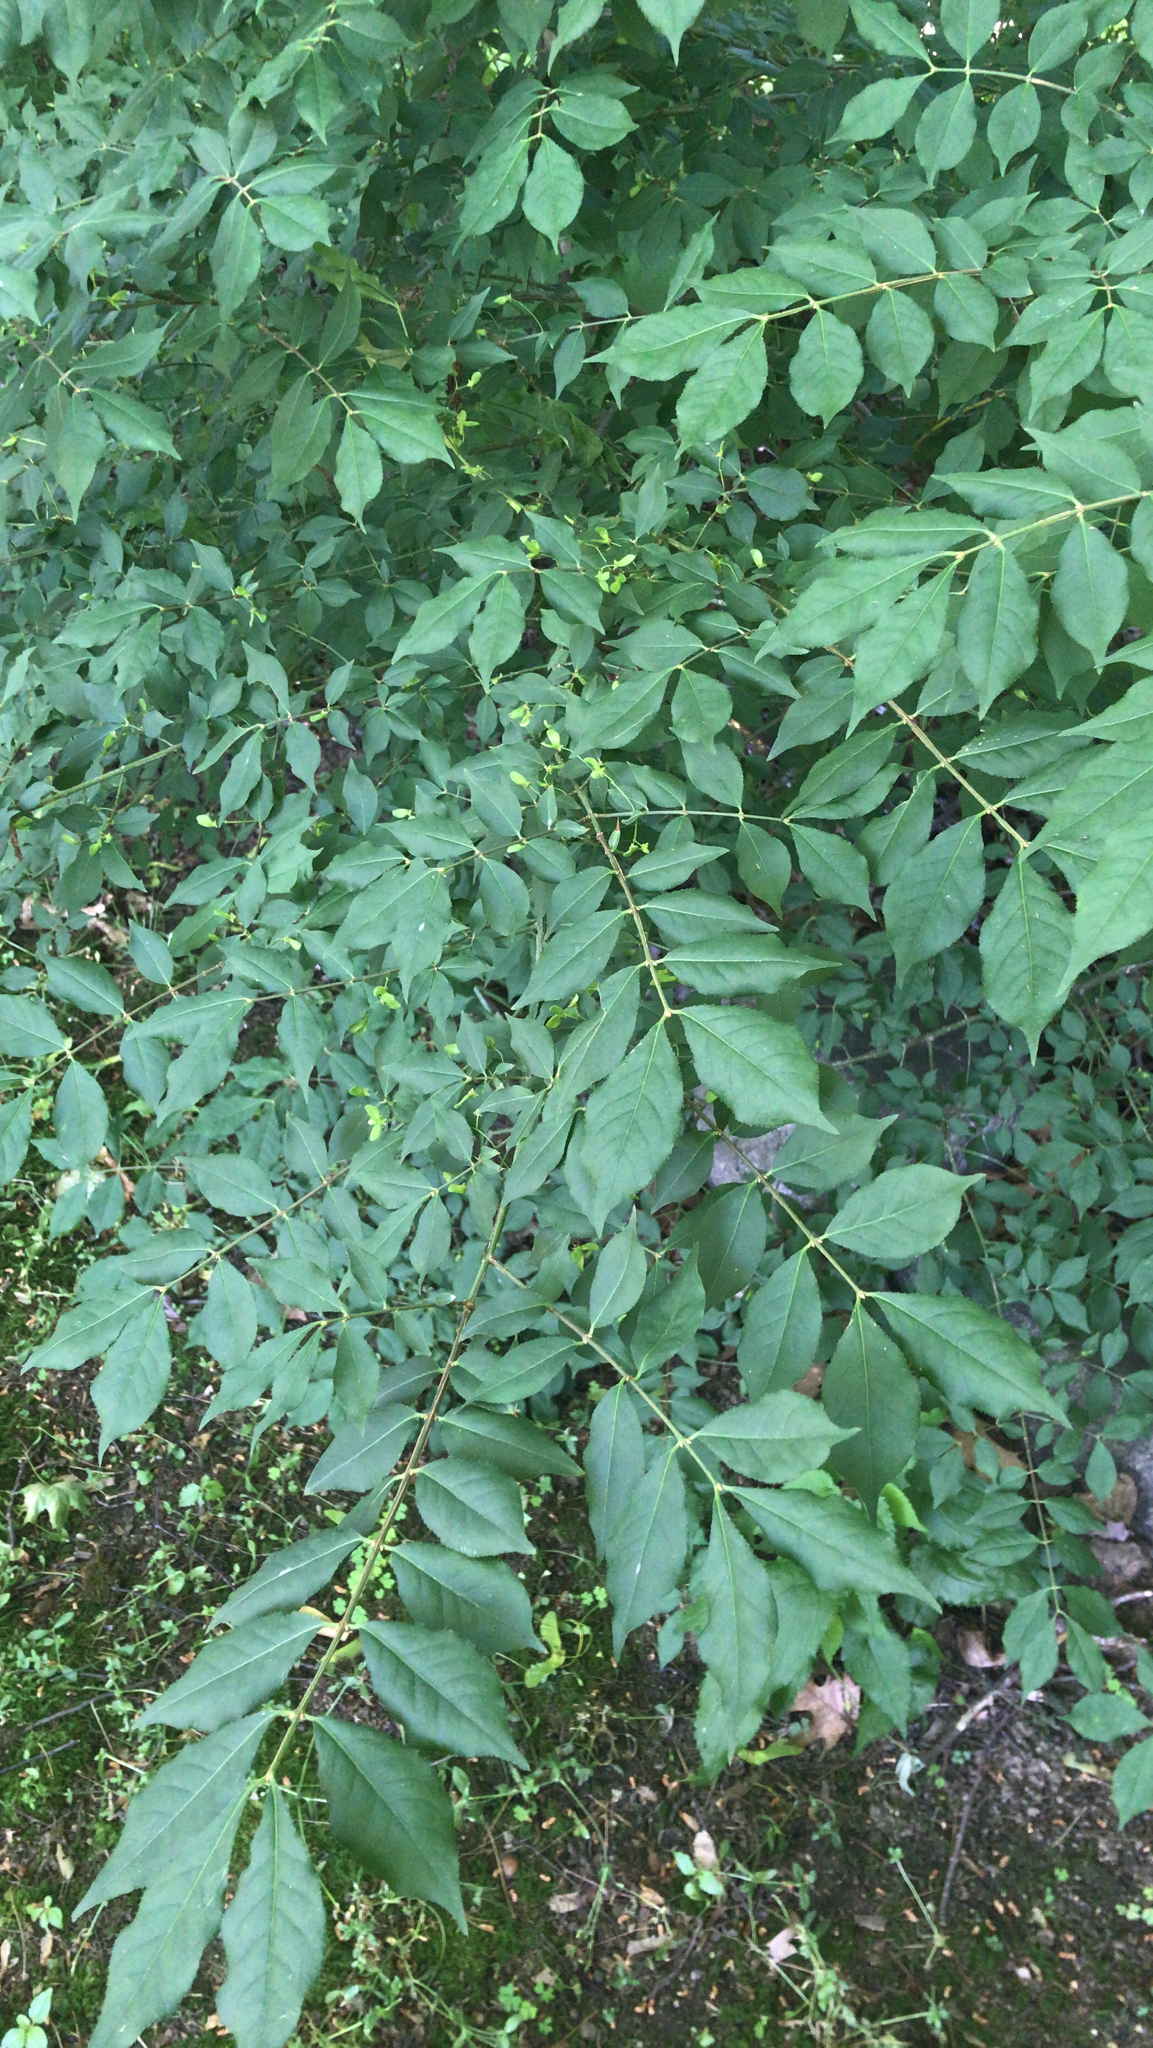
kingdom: Plantae
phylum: Tracheophyta
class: Magnoliopsida
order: Celastrales
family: Celastraceae
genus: Euonymus
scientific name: Euonymus alatus
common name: Winged euonymus
